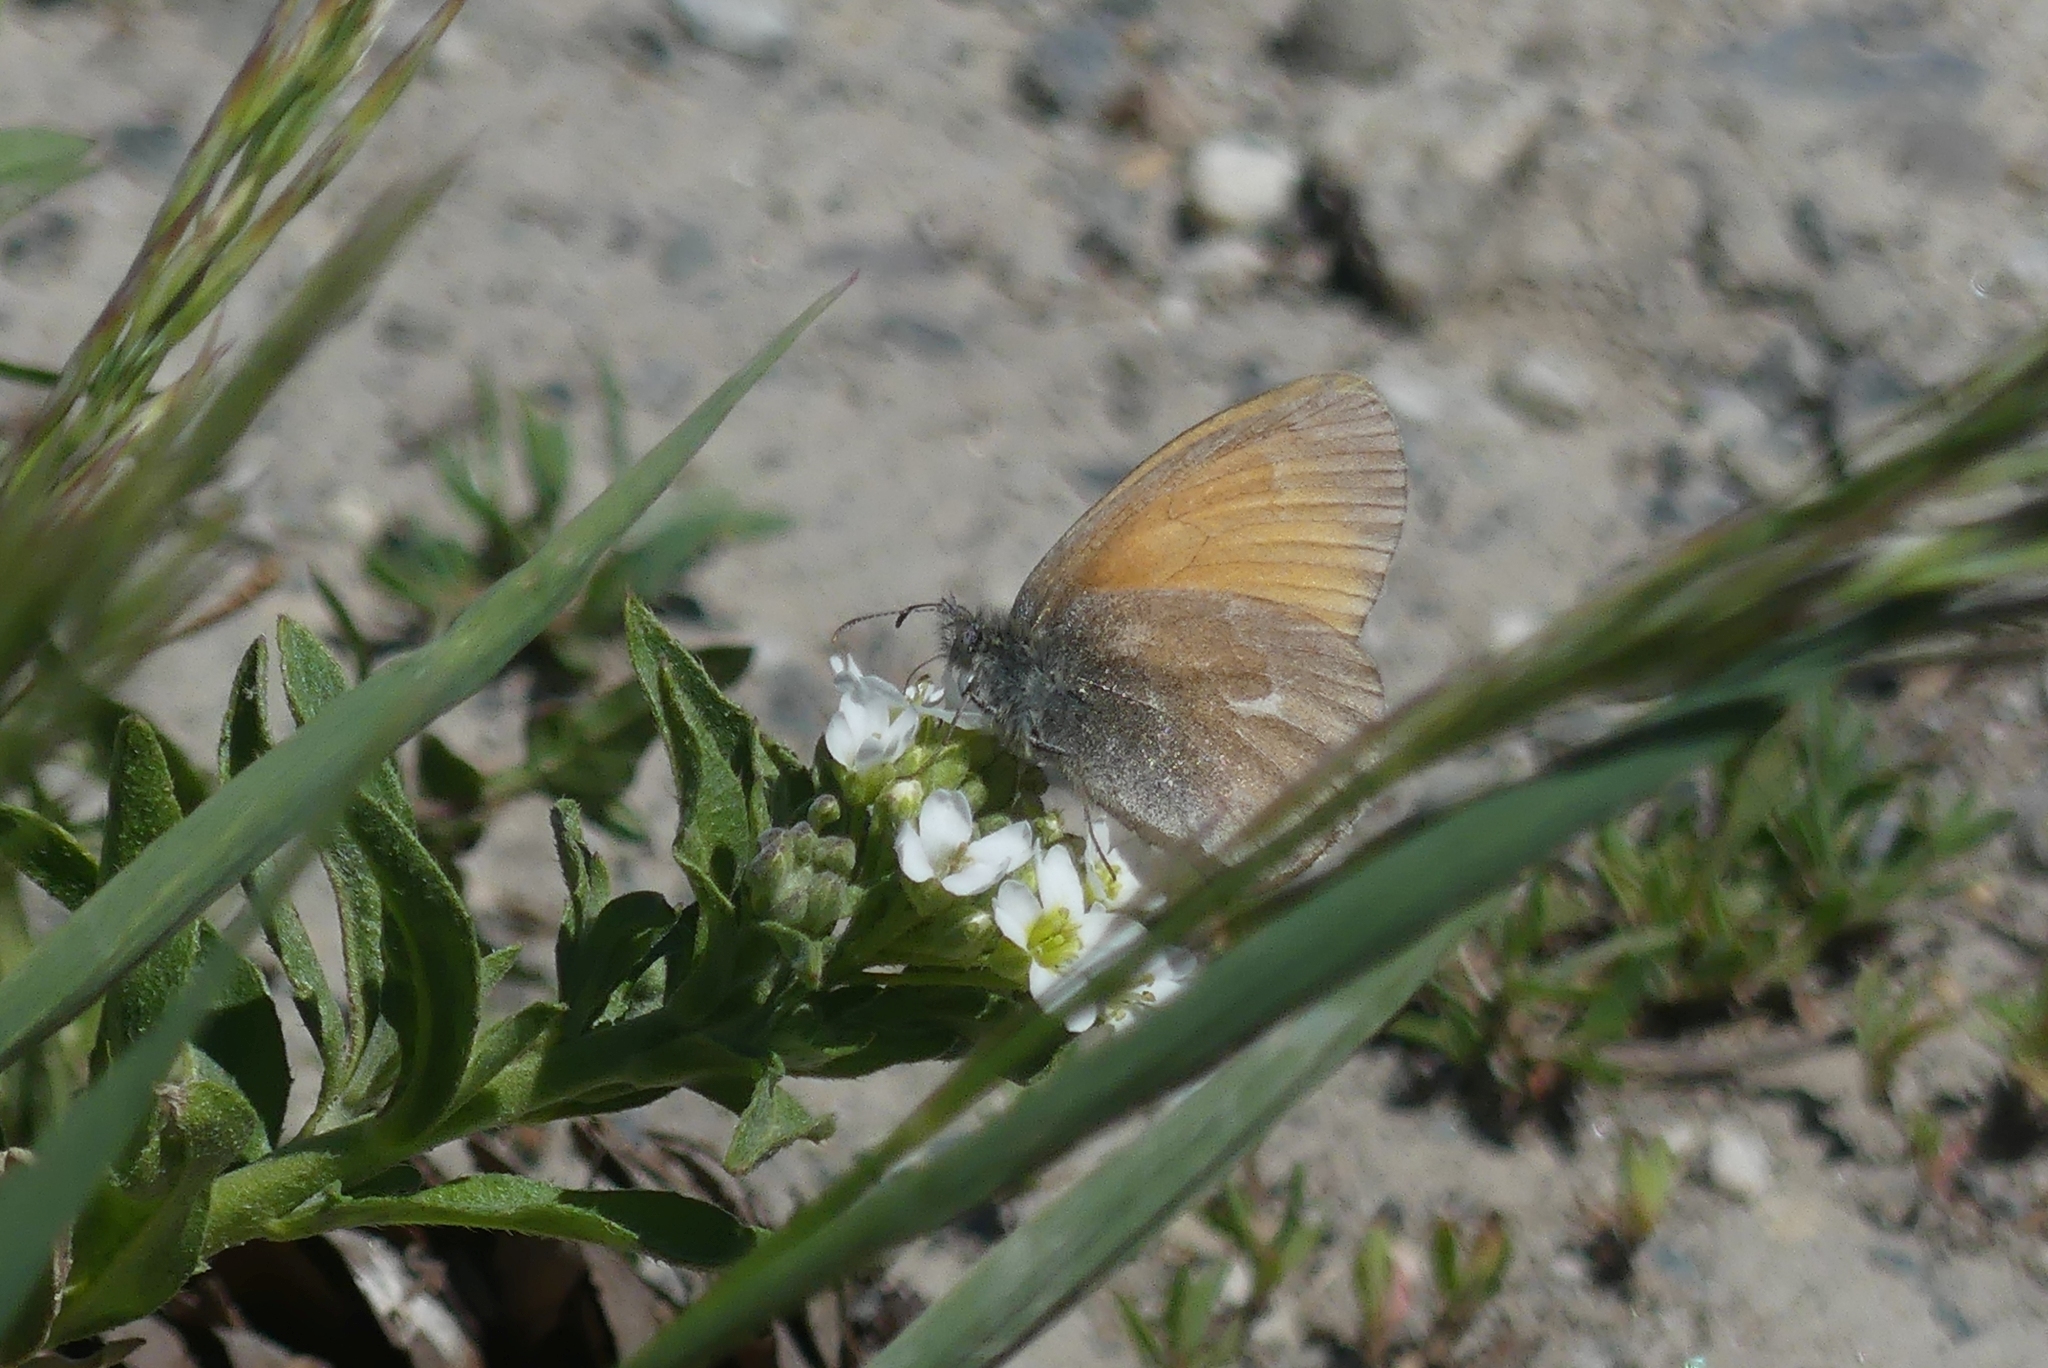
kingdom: Animalia
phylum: Arthropoda
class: Insecta
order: Lepidoptera
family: Nymphalidae
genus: Coenonympha
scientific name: Coenonympha california
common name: Common ringlet
